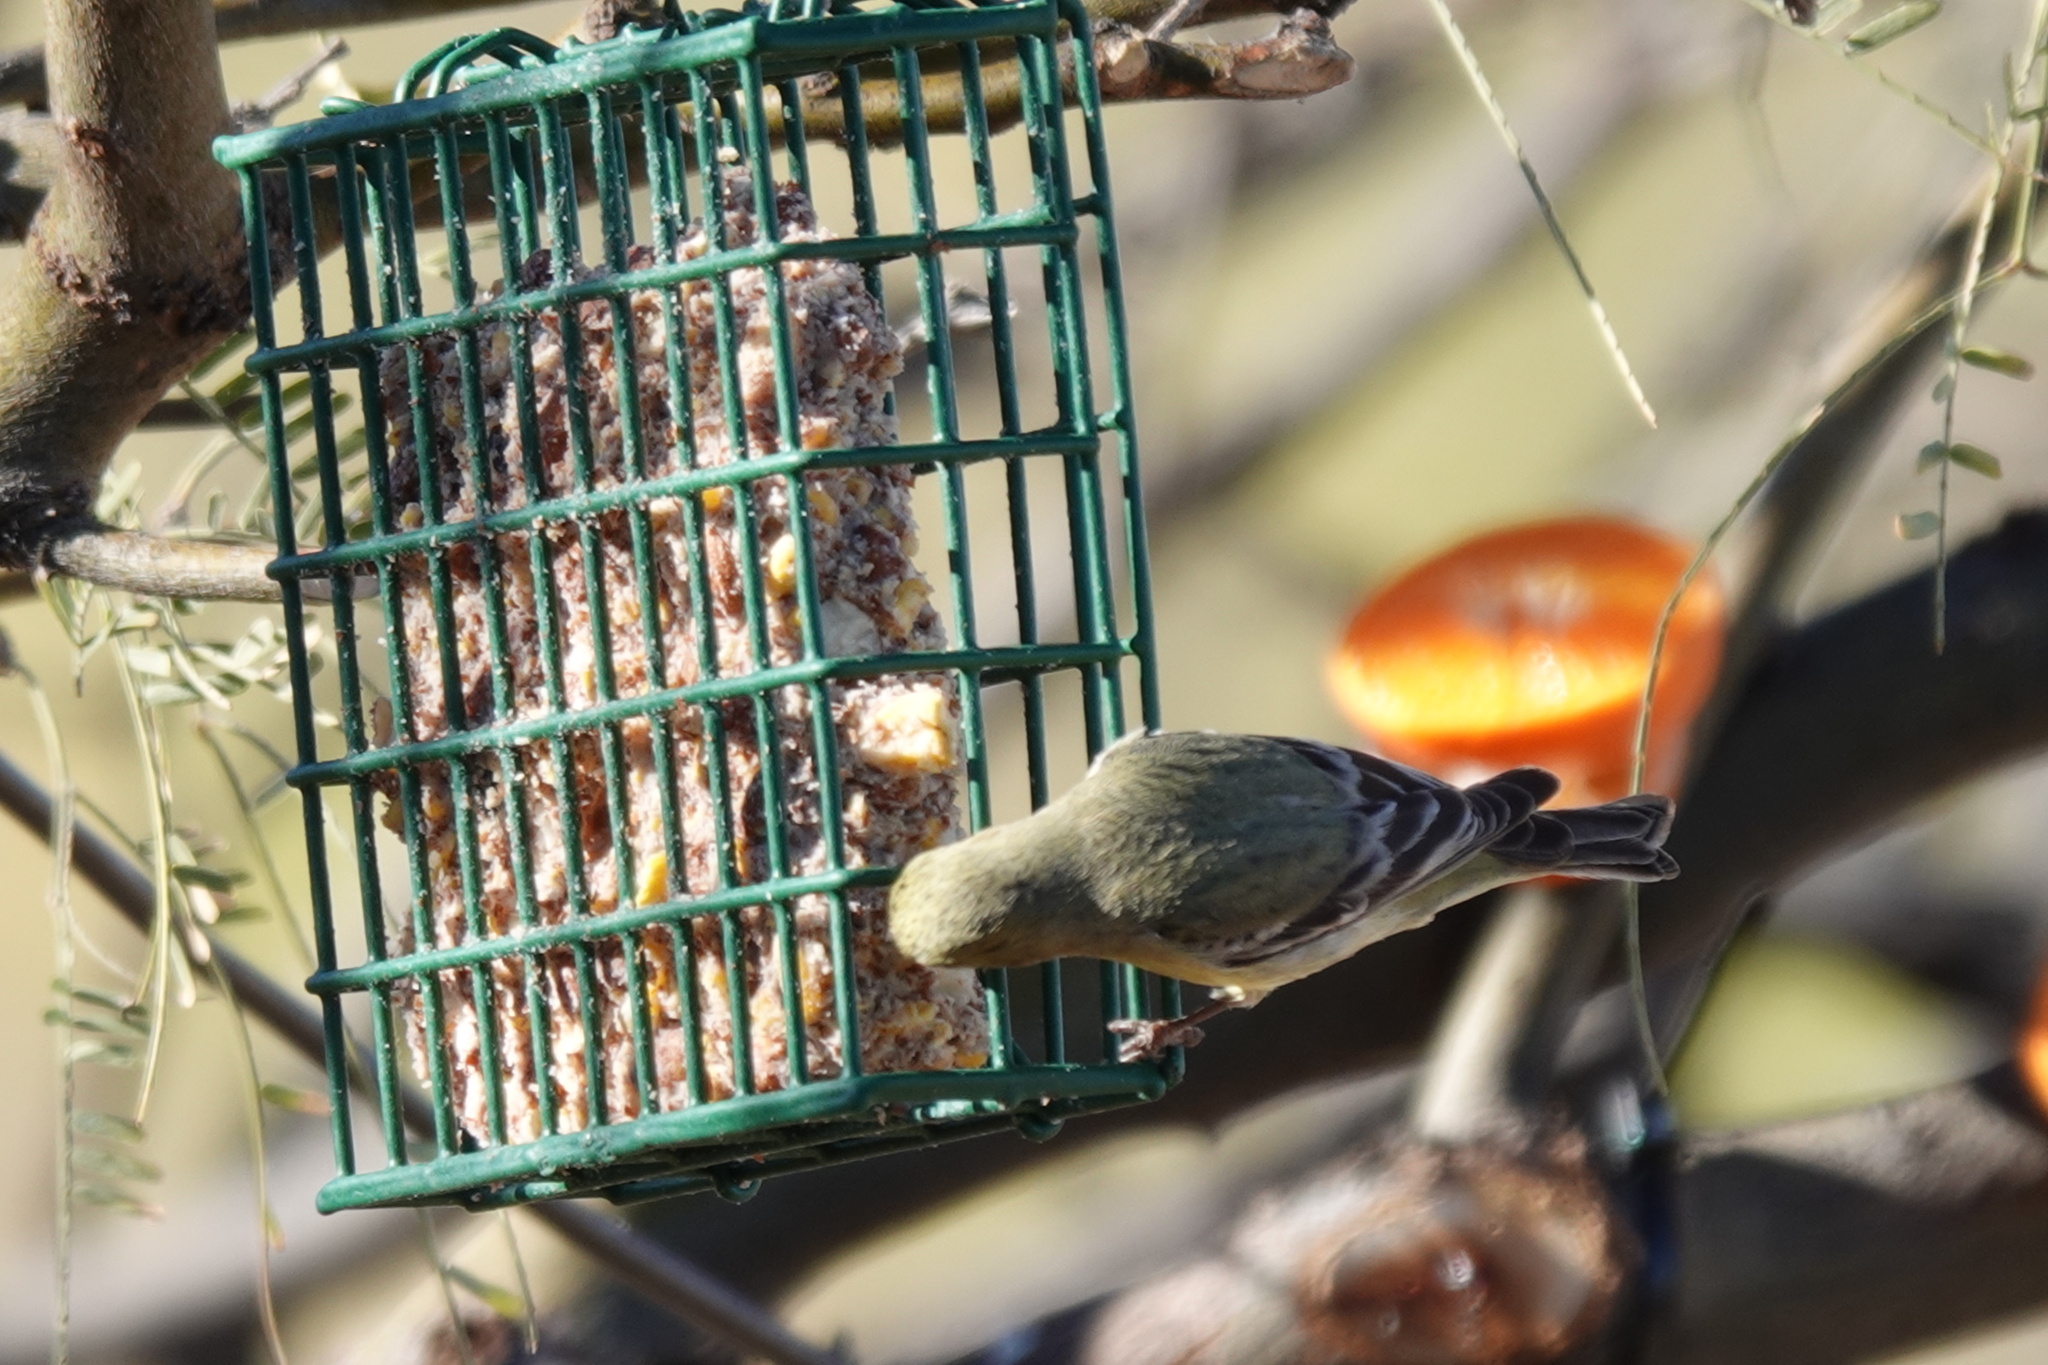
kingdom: Animalia
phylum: Chordata
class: Aves
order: Passeriformes
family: Fringillidae
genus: Spinus
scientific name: Spinus psaltria
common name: Lesser goldfinch
